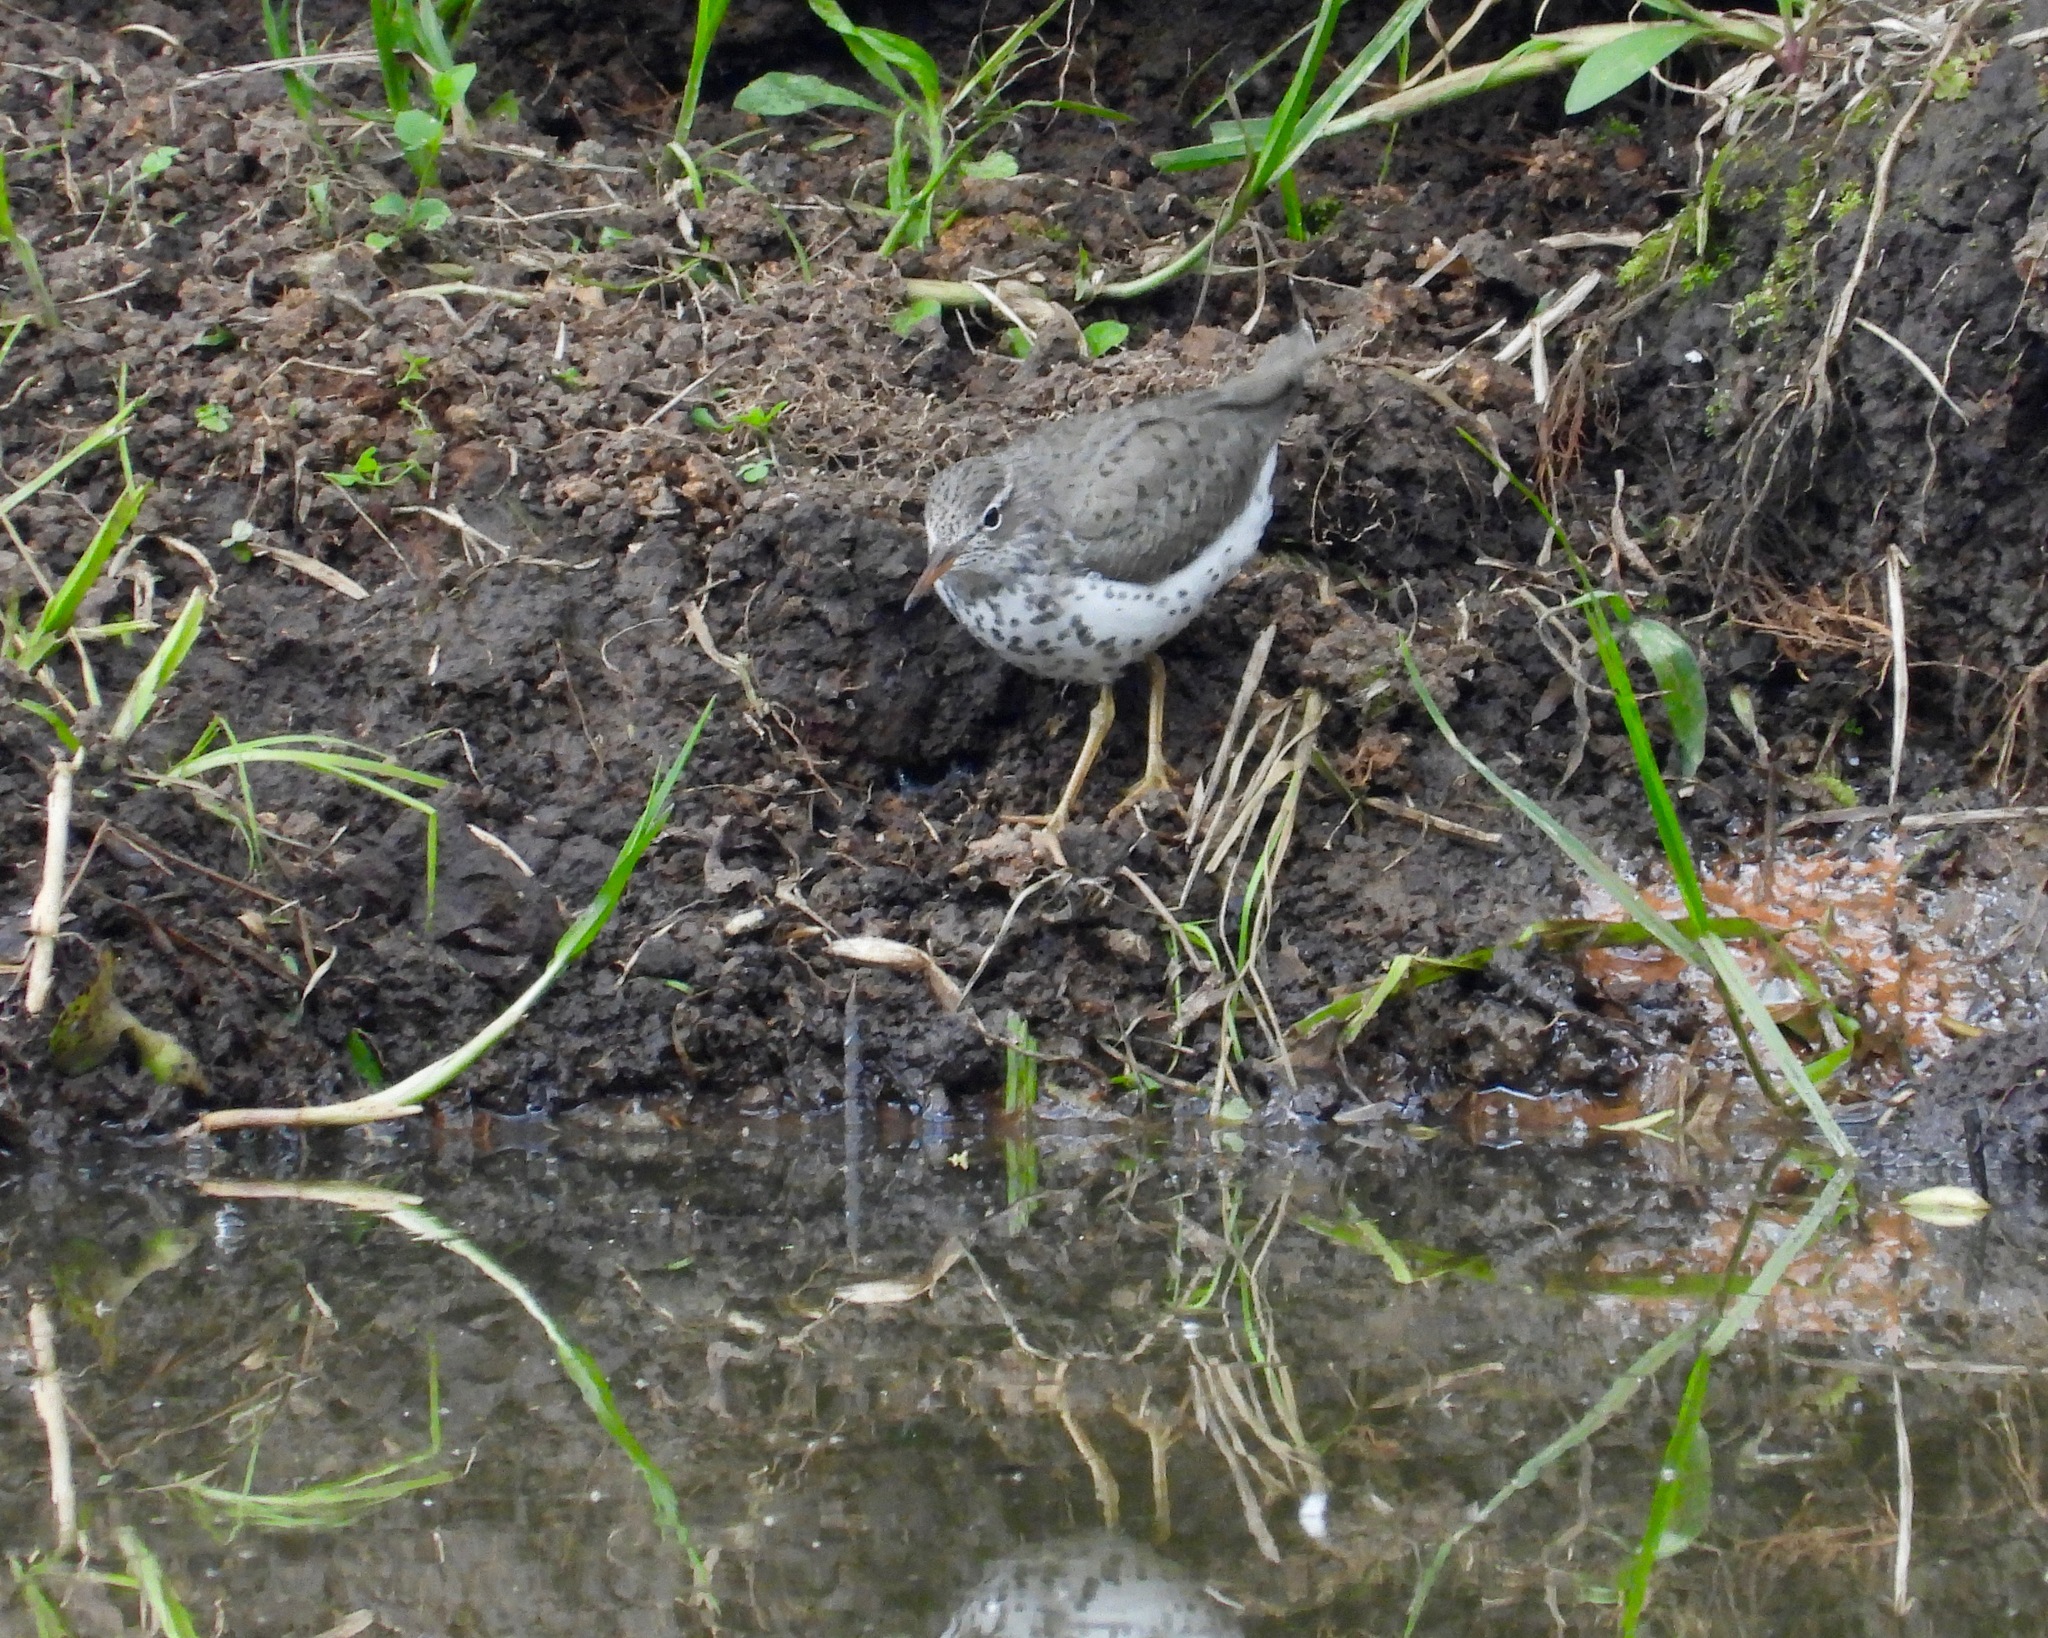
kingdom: Animalia
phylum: Chordata
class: Aves
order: Charadriiformes
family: Scolopacidae
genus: Actitis
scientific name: Actitis macularius
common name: Spotted sandpiper
